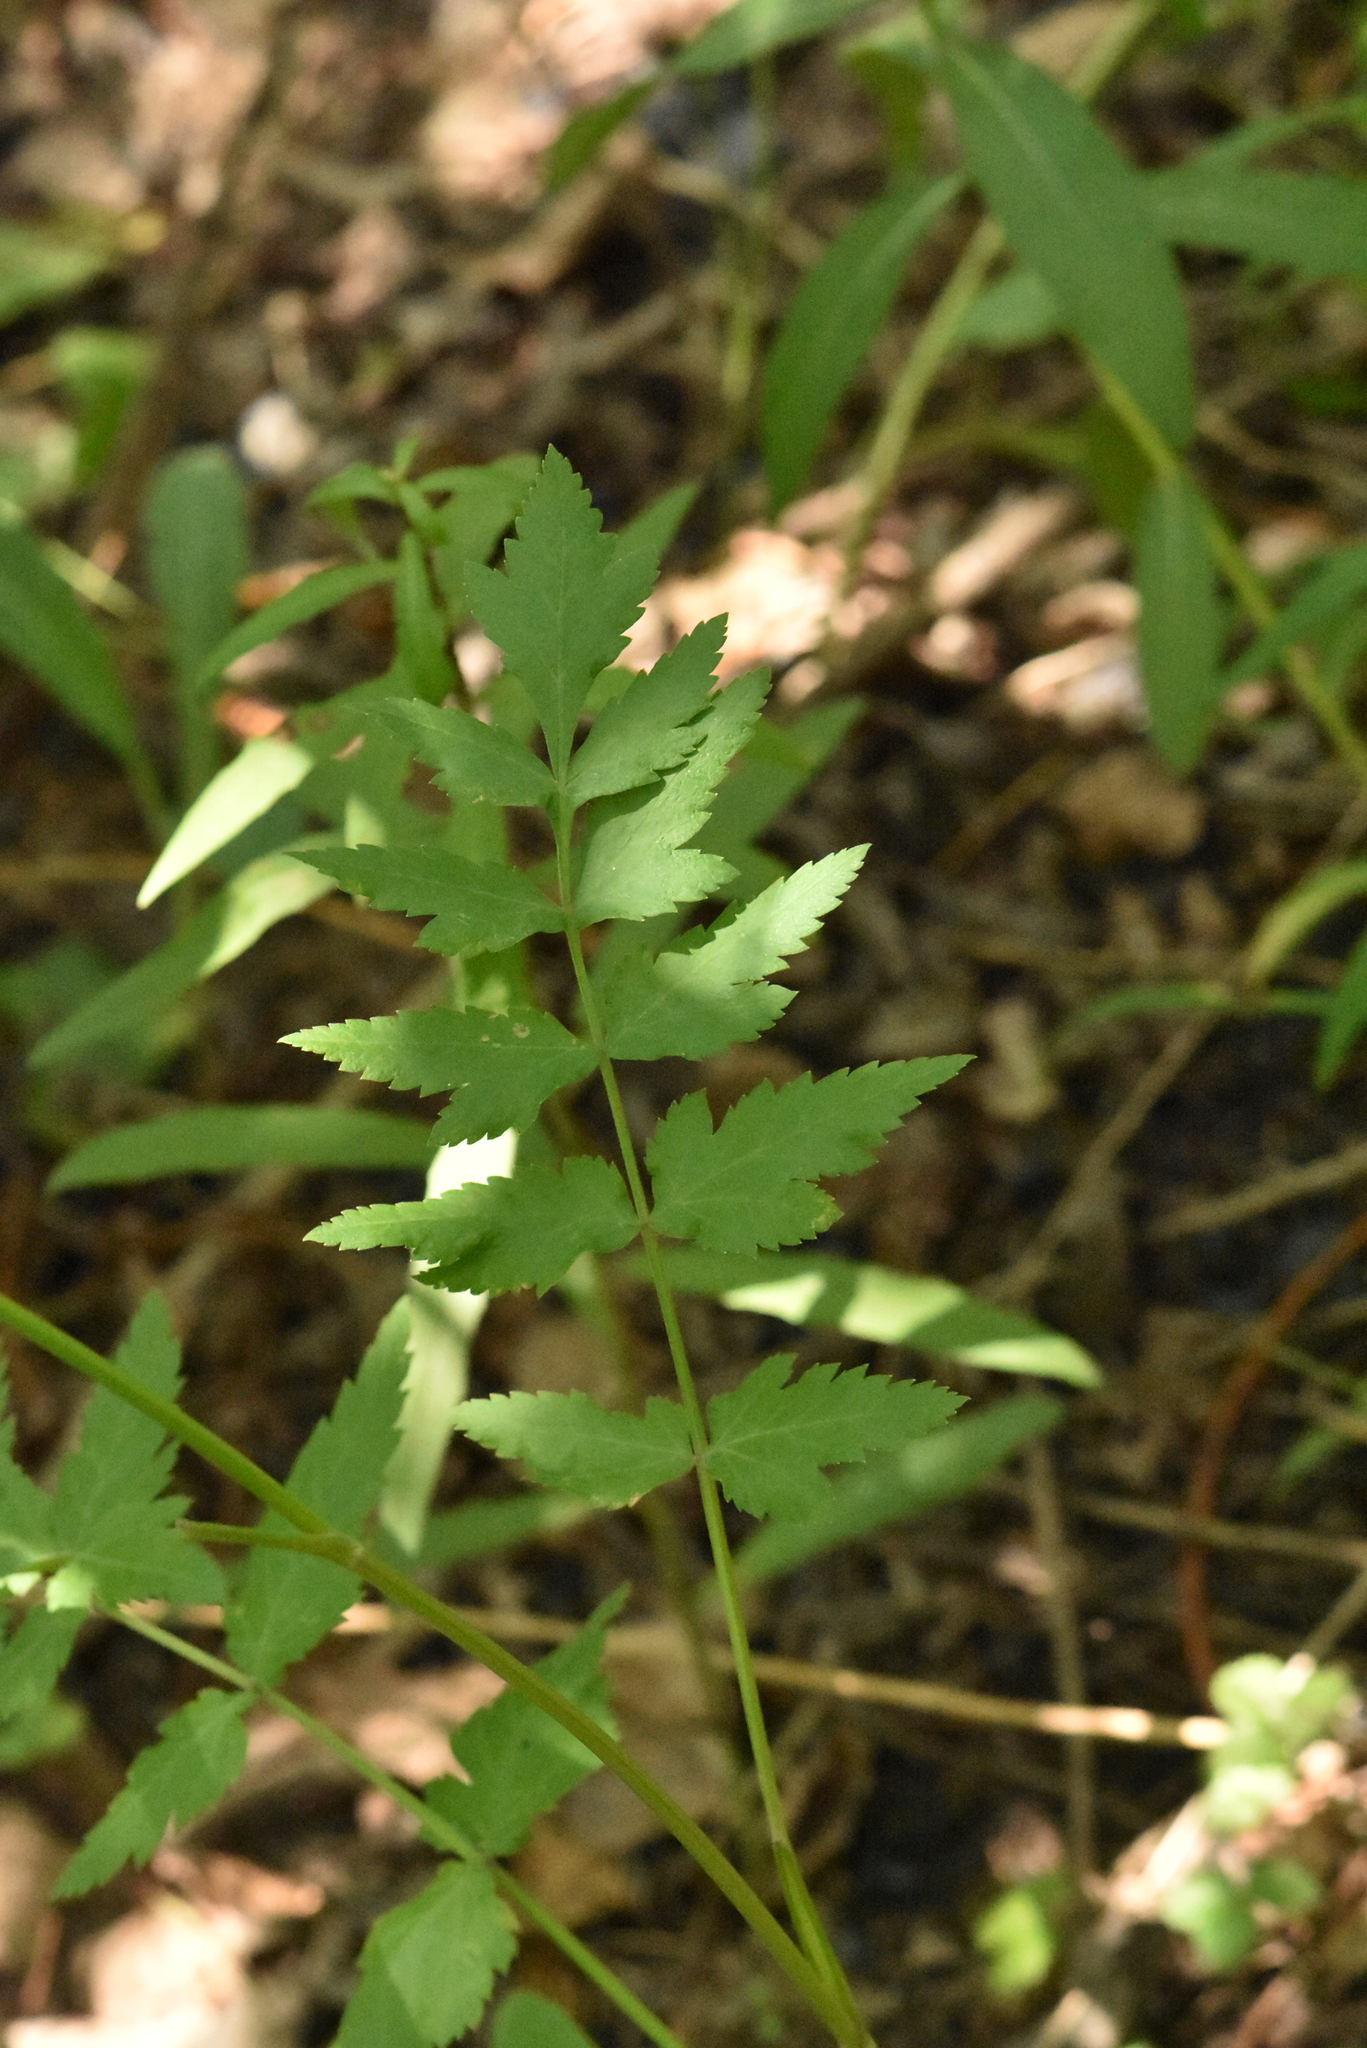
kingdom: Plantae
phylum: Tracheophyta
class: Magnoliopsida
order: Apiales
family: Apiaceae
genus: Pastinaca
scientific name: Pastinaca sativa
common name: Wild parsnip
